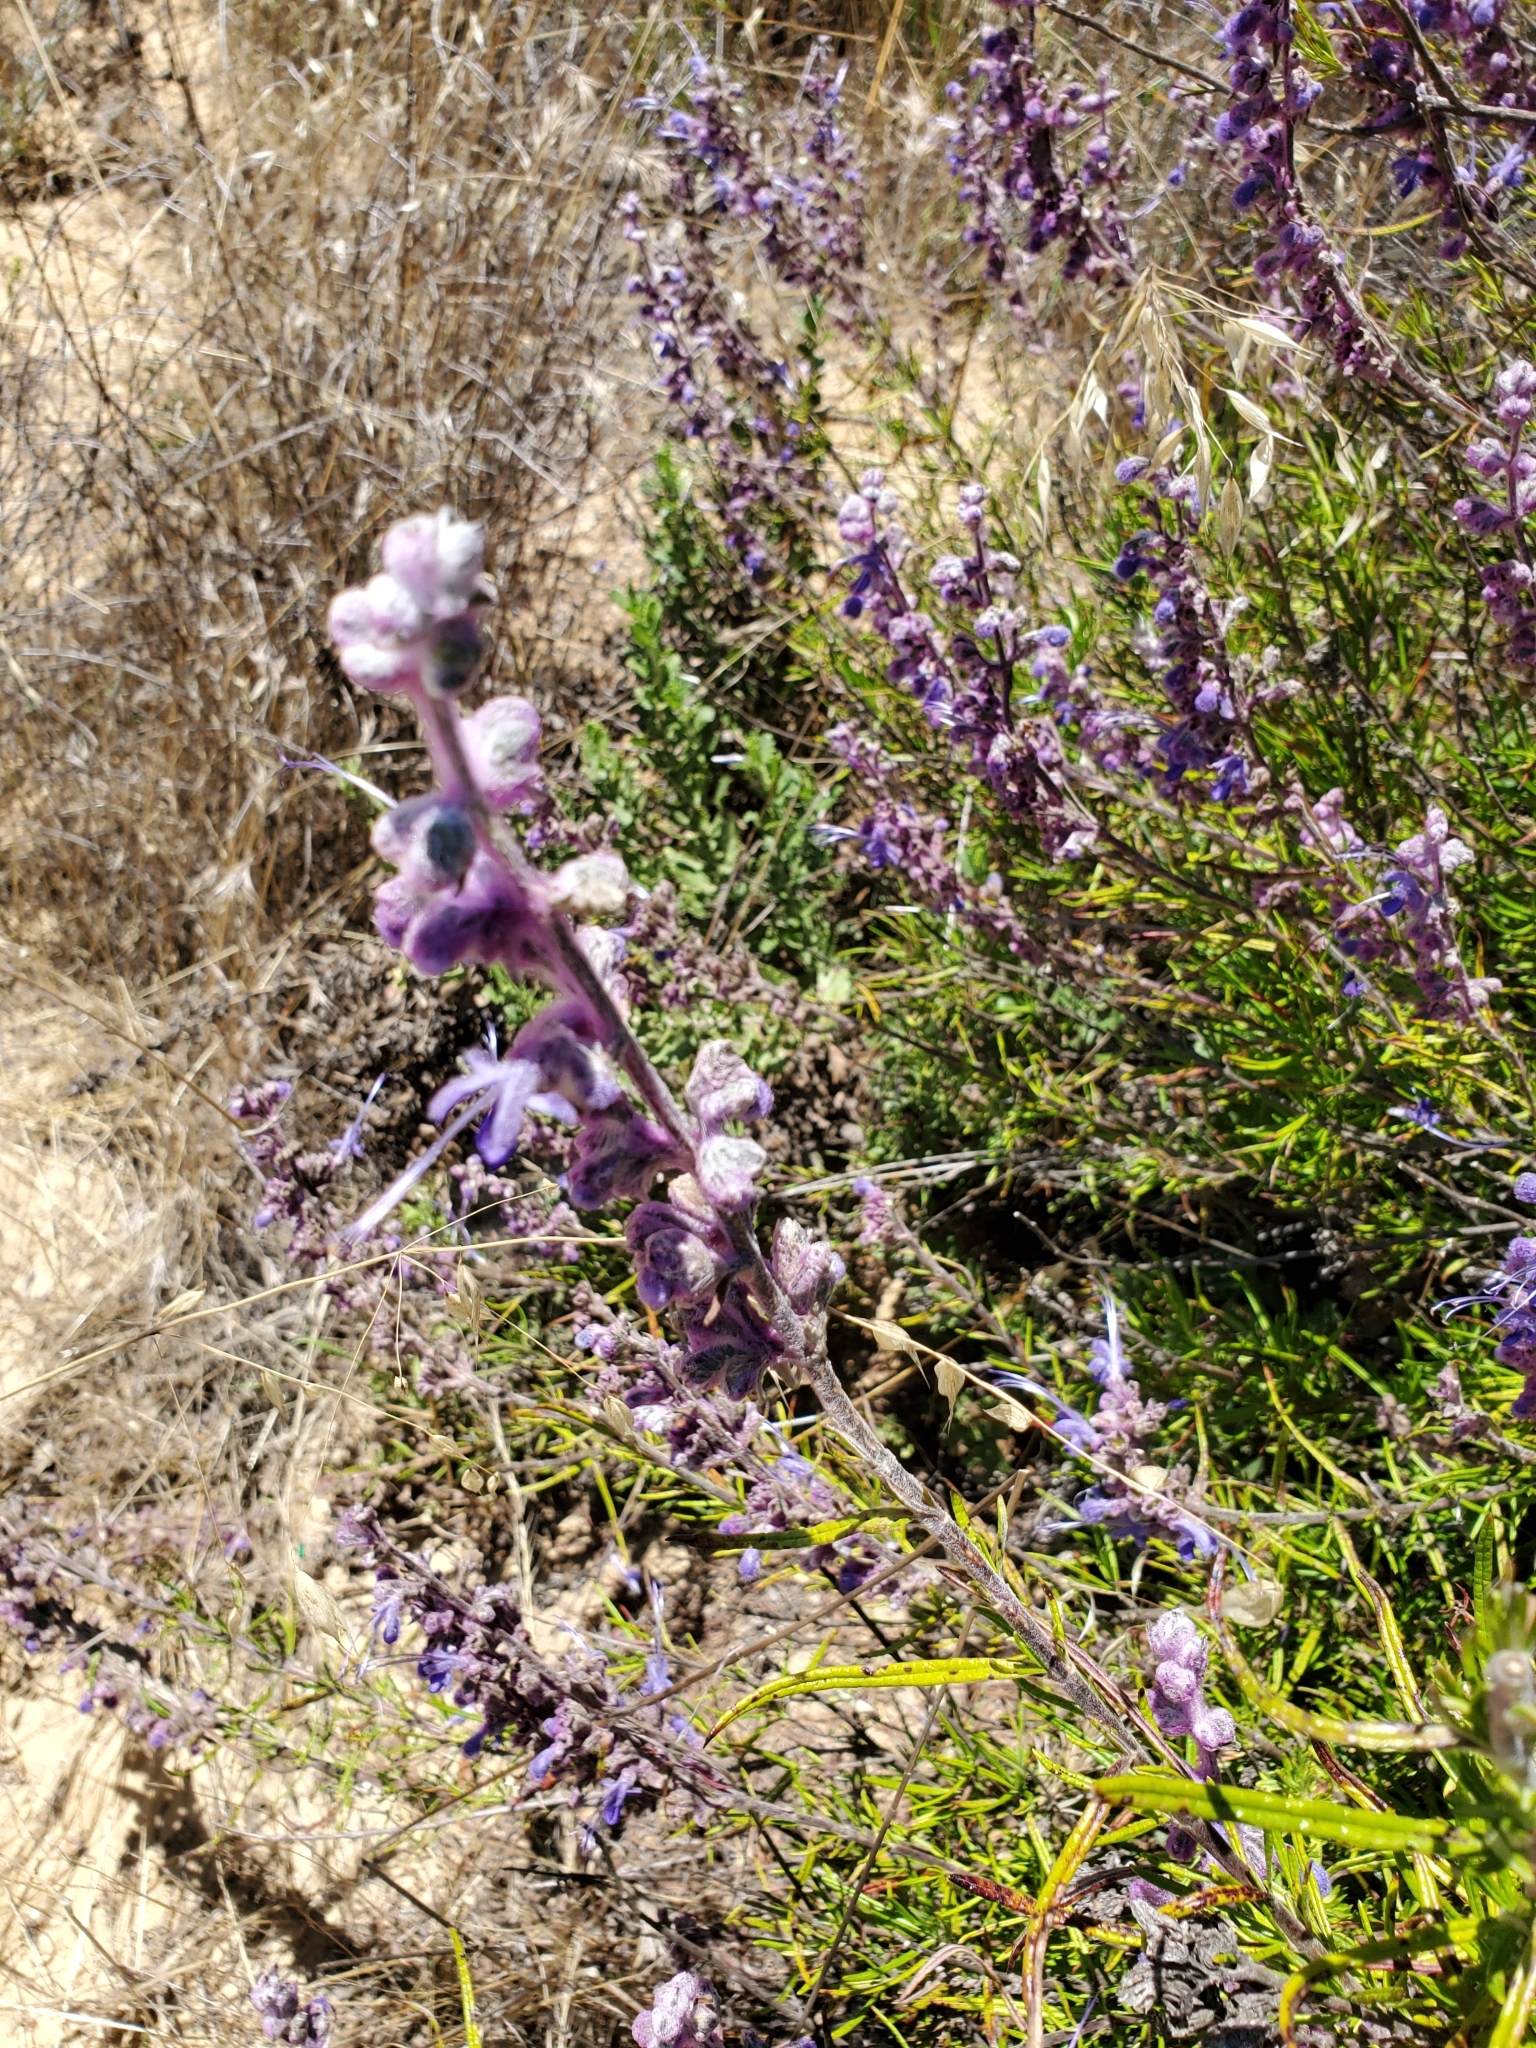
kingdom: Plantae
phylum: Tracheophyta
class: Magnoliopsida
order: Lamiales
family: Lamiaceae
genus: Trichostema
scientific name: Trichostema lanatum
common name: Woolly bluecurls
